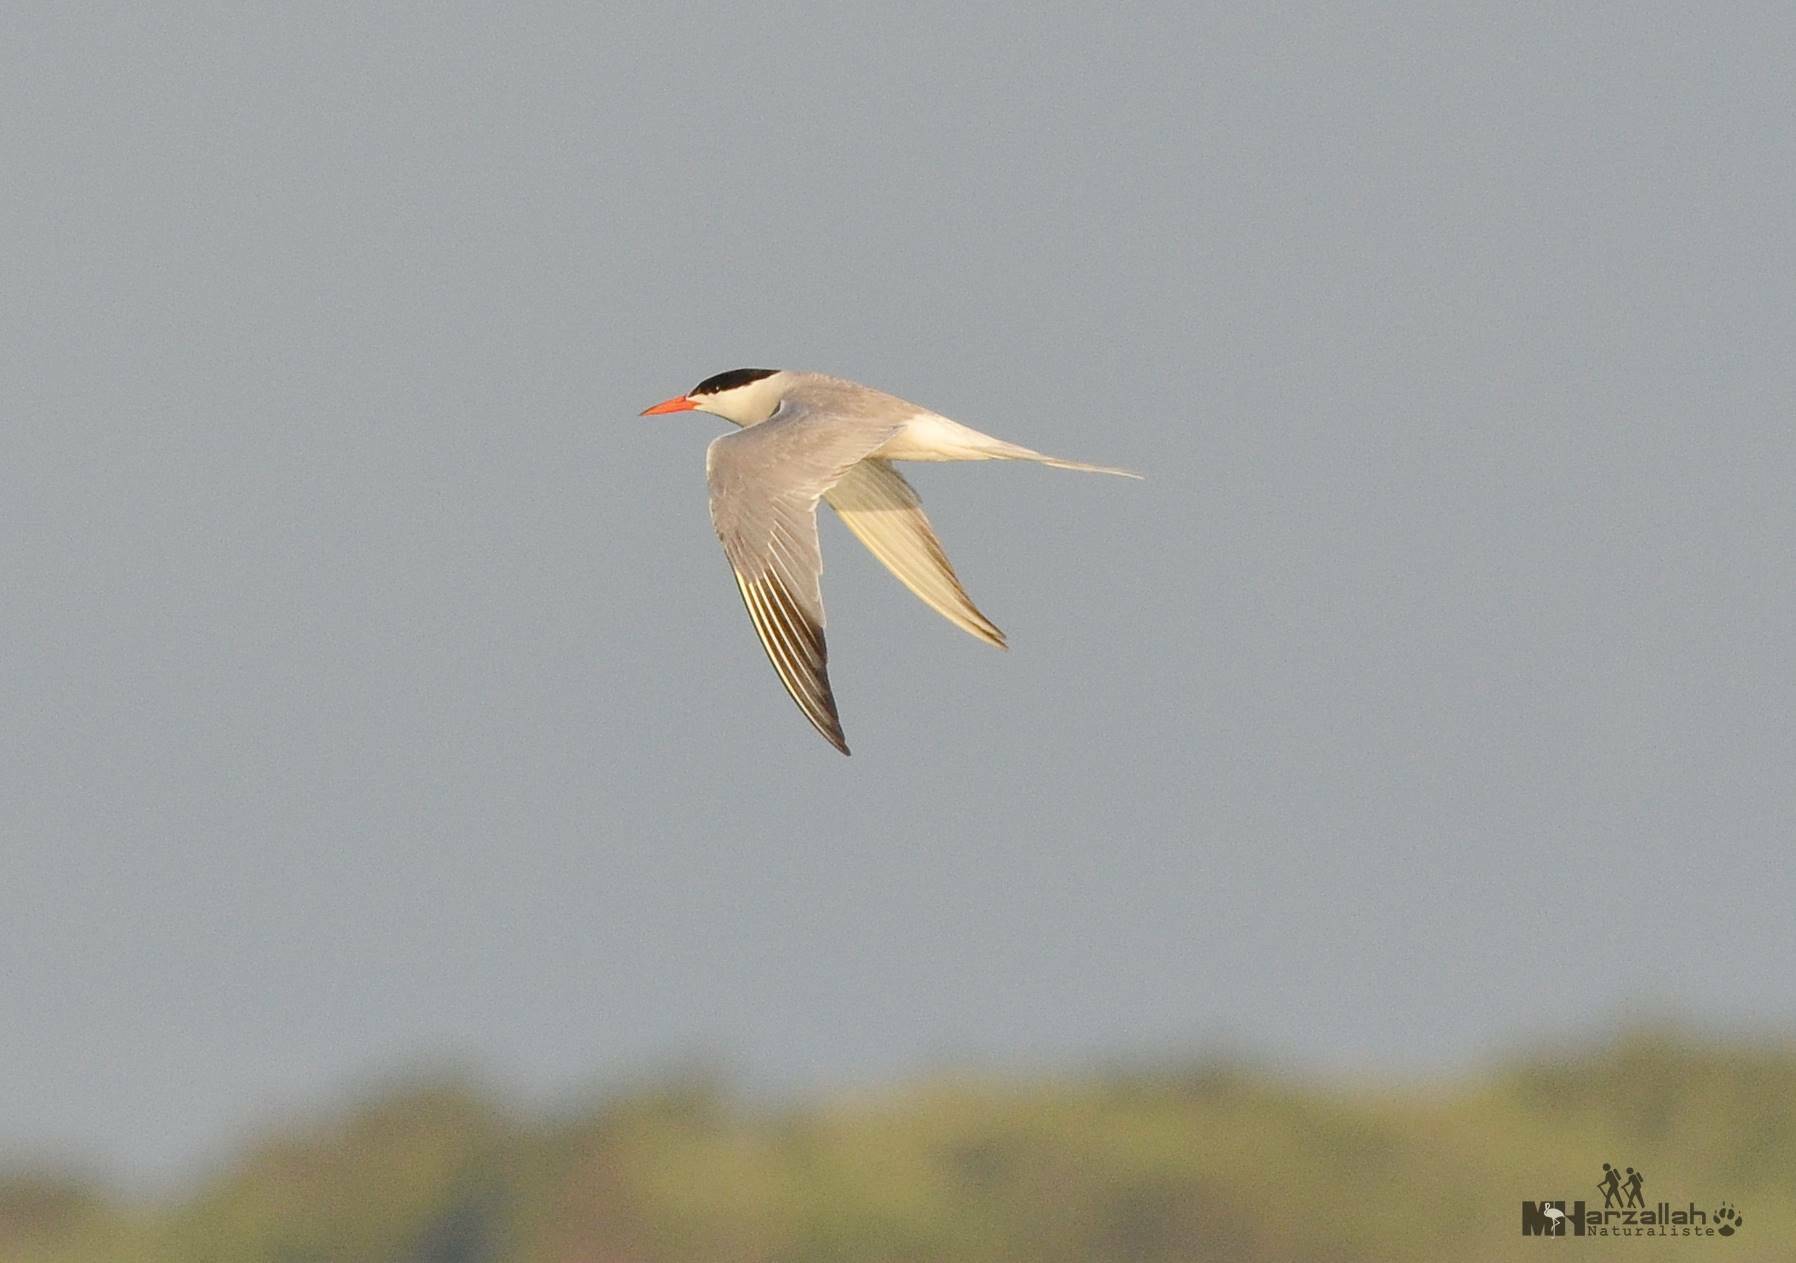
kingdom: Animalia
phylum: Chordata
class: Aves
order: Charadriiformes
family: Laridae
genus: Sterna
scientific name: Sterna hirundo
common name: Common tern
